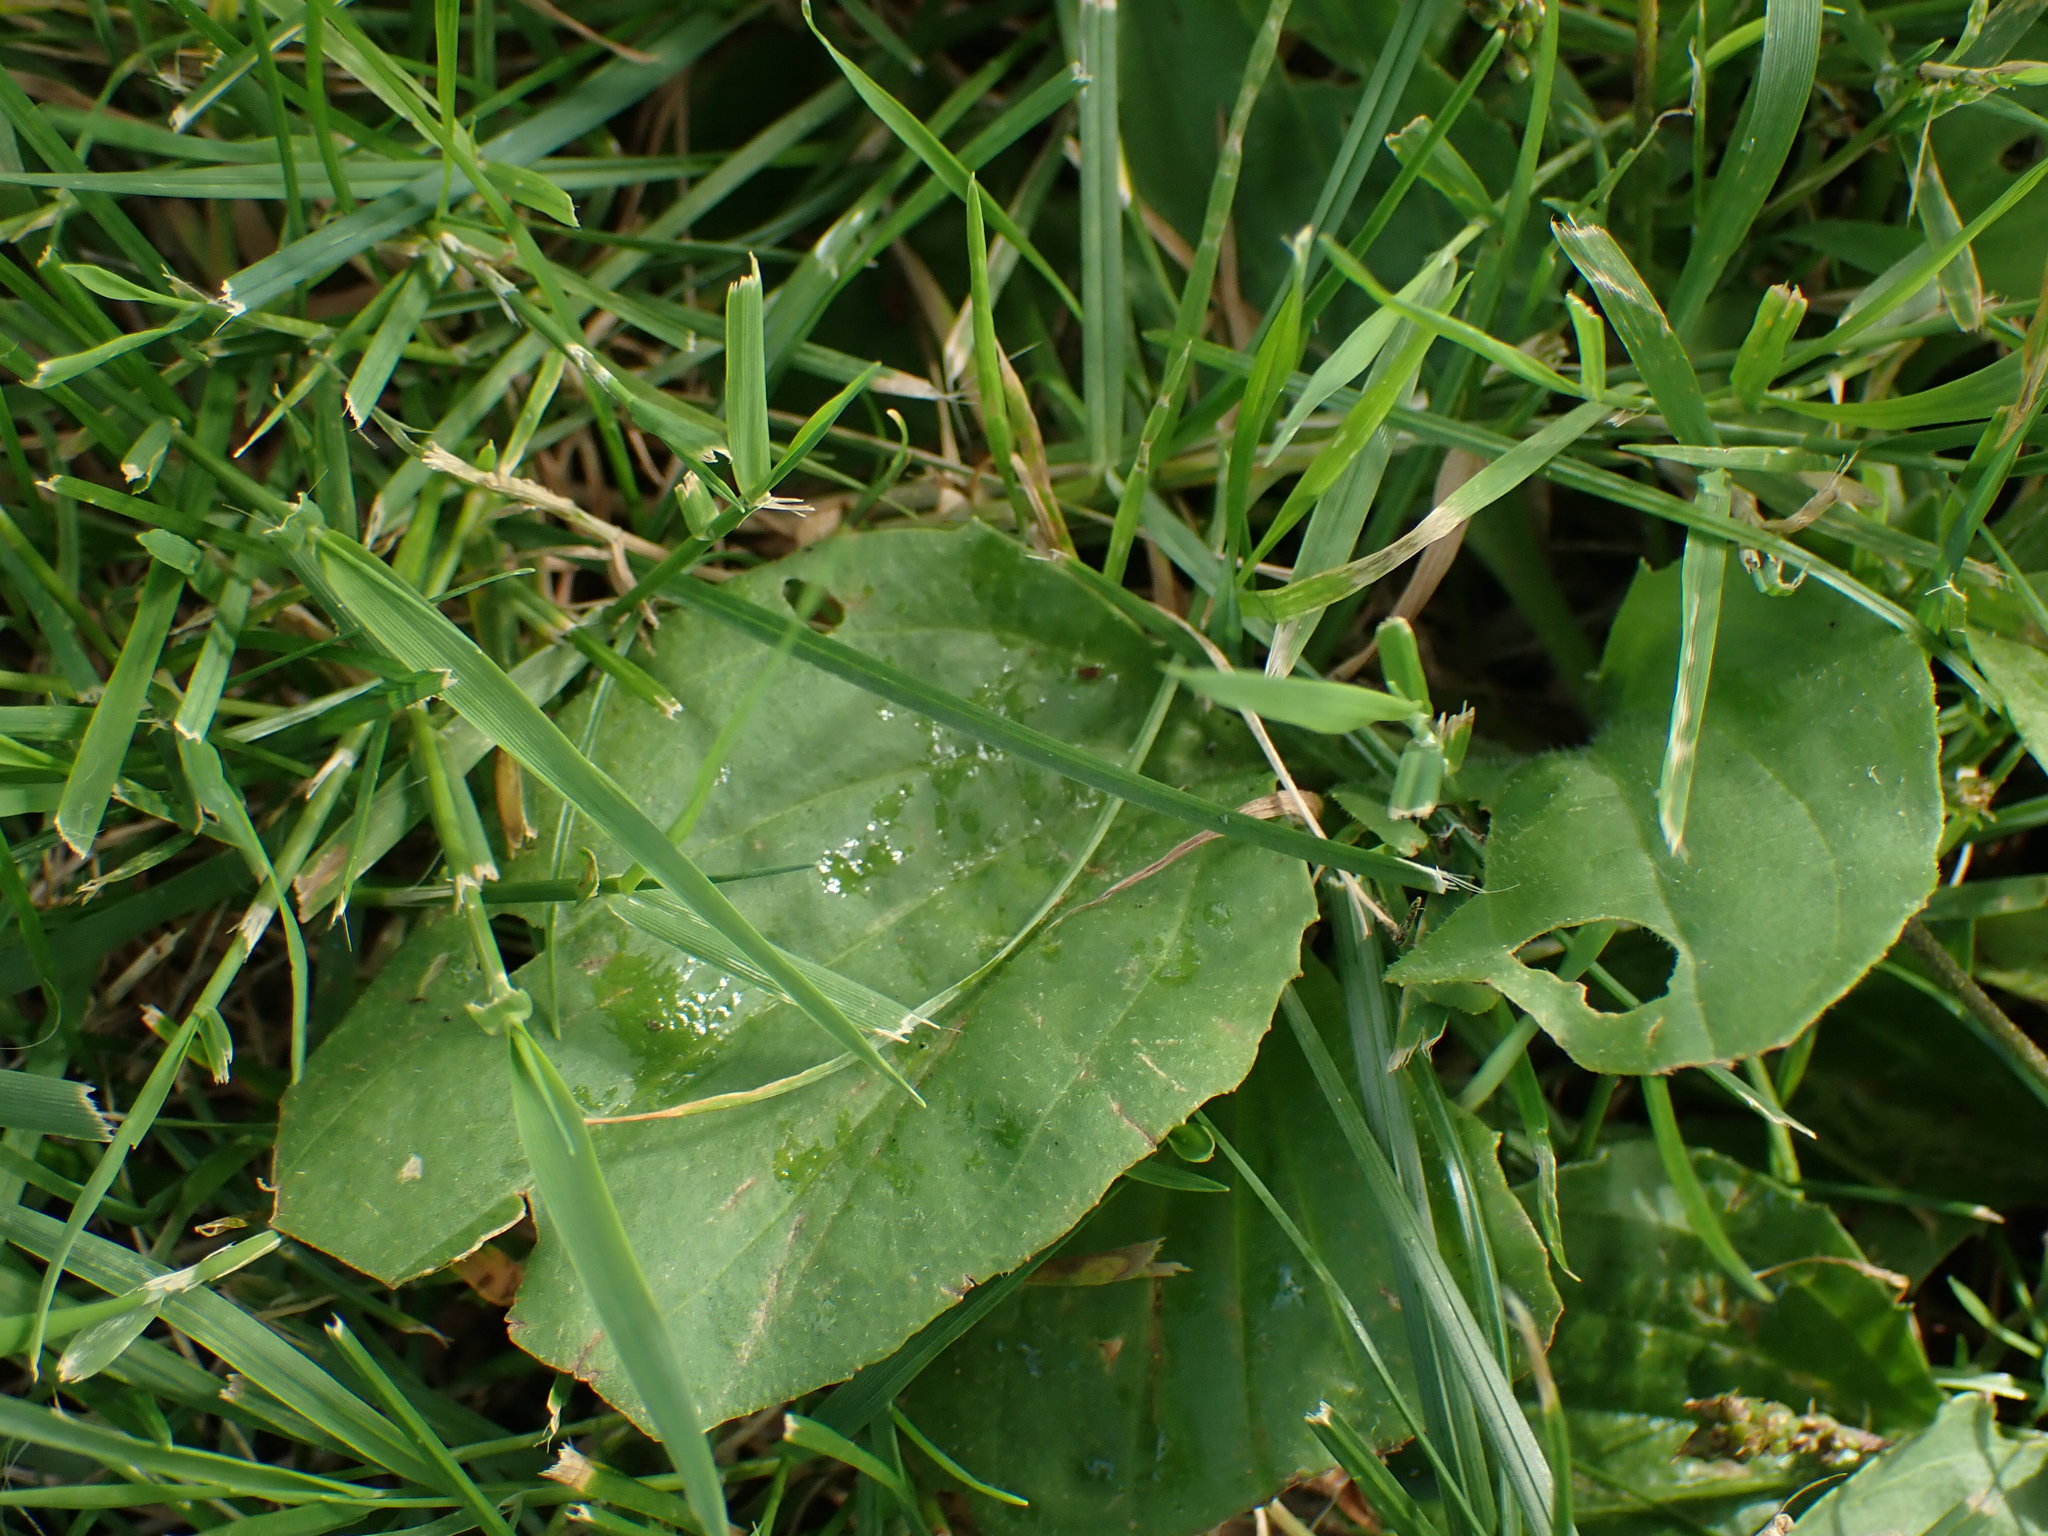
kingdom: Plantae
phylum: Tracheophyta
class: Magnoliopsida
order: Lamiales
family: Plantaginaceae
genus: Plantago
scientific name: Plantago major
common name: Common plantain
